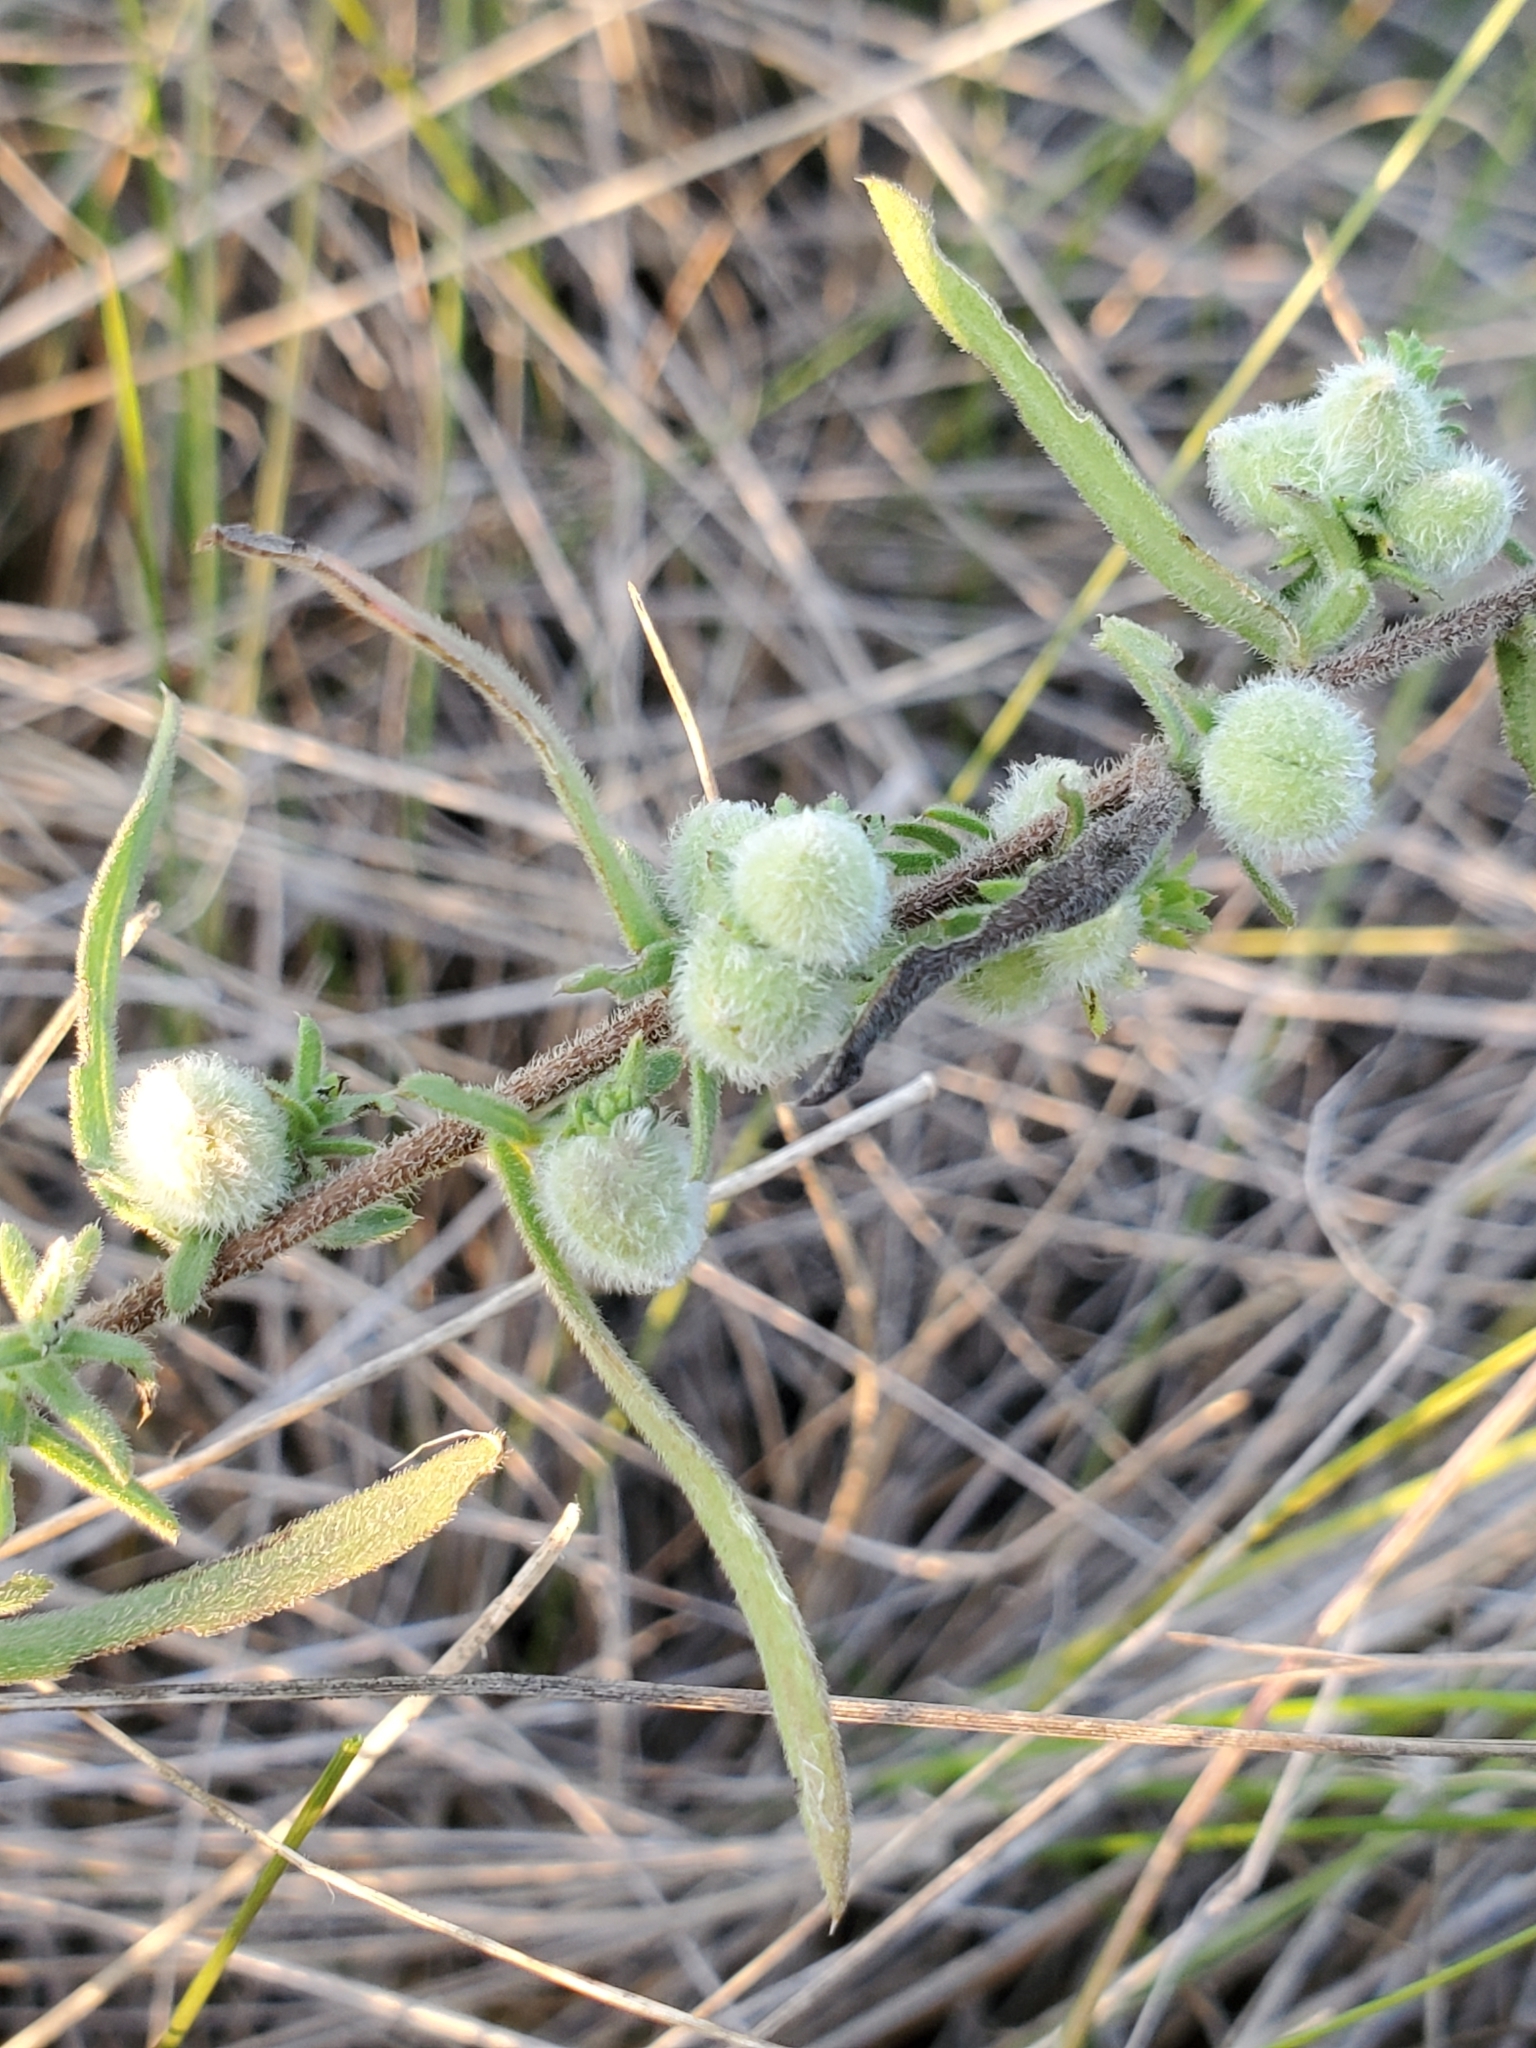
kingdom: Animalia
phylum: Arthropoda
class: Insecta
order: Diptera
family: Cecidomyiidae
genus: Rhopalomyia
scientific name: Rhopalomyia gemmaria
